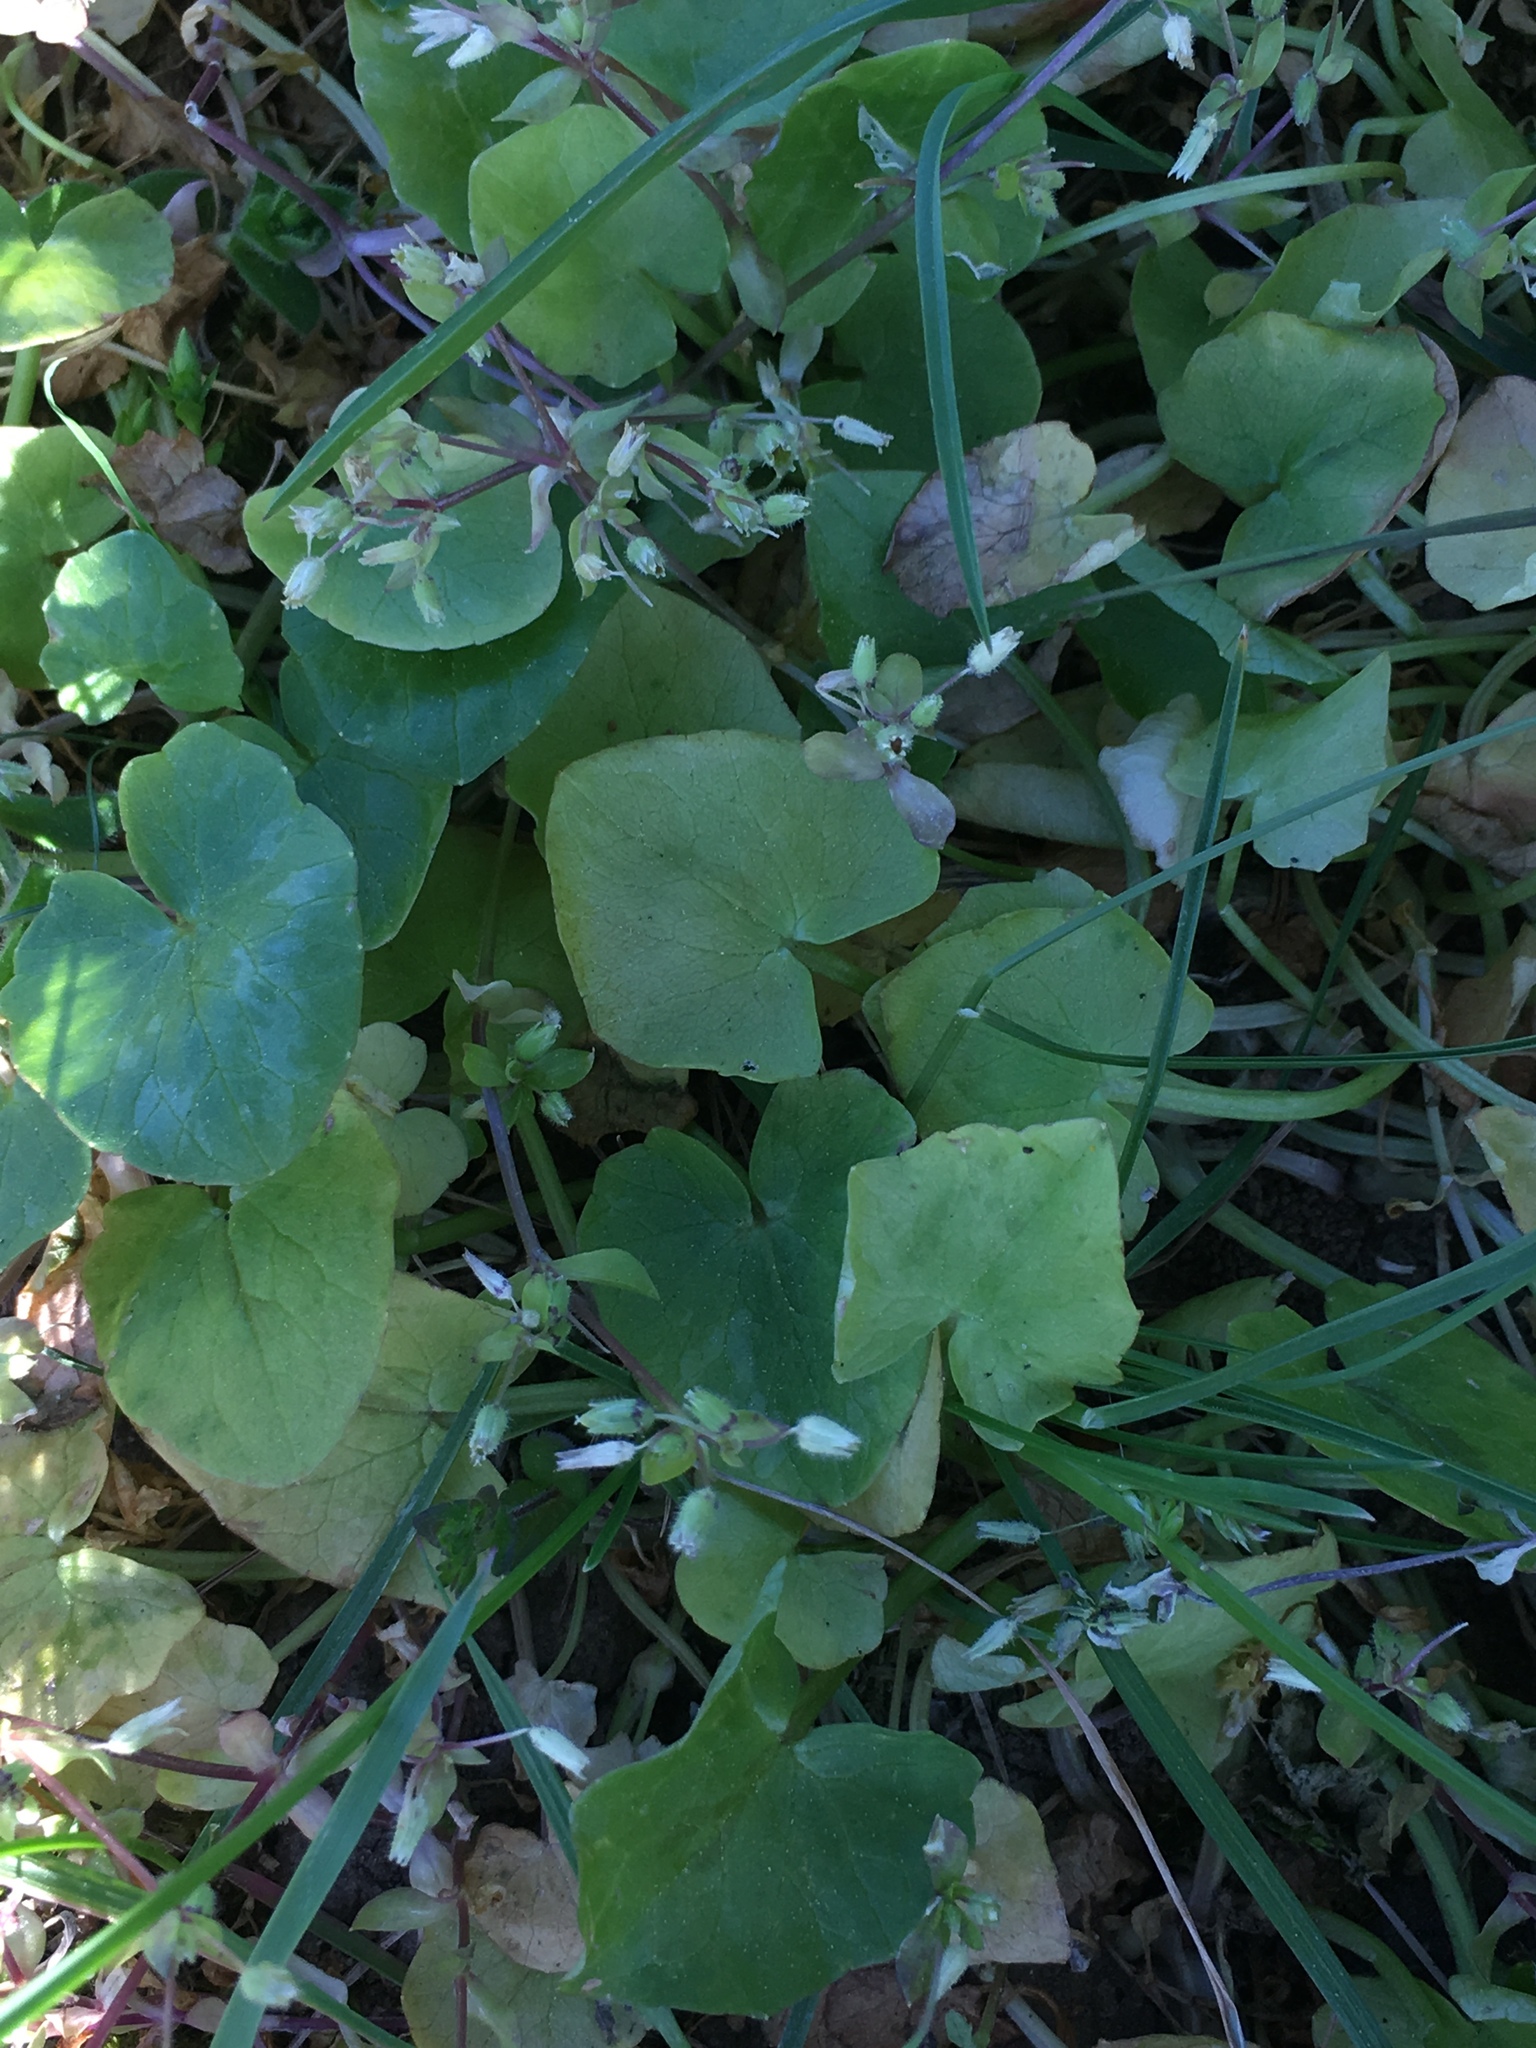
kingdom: Plantae
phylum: Tracheophyta
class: Magnoliopsida
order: Ranunculales
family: Ranunculaceae
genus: Ficaria
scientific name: Ficaria verna
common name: Lesser celandine
